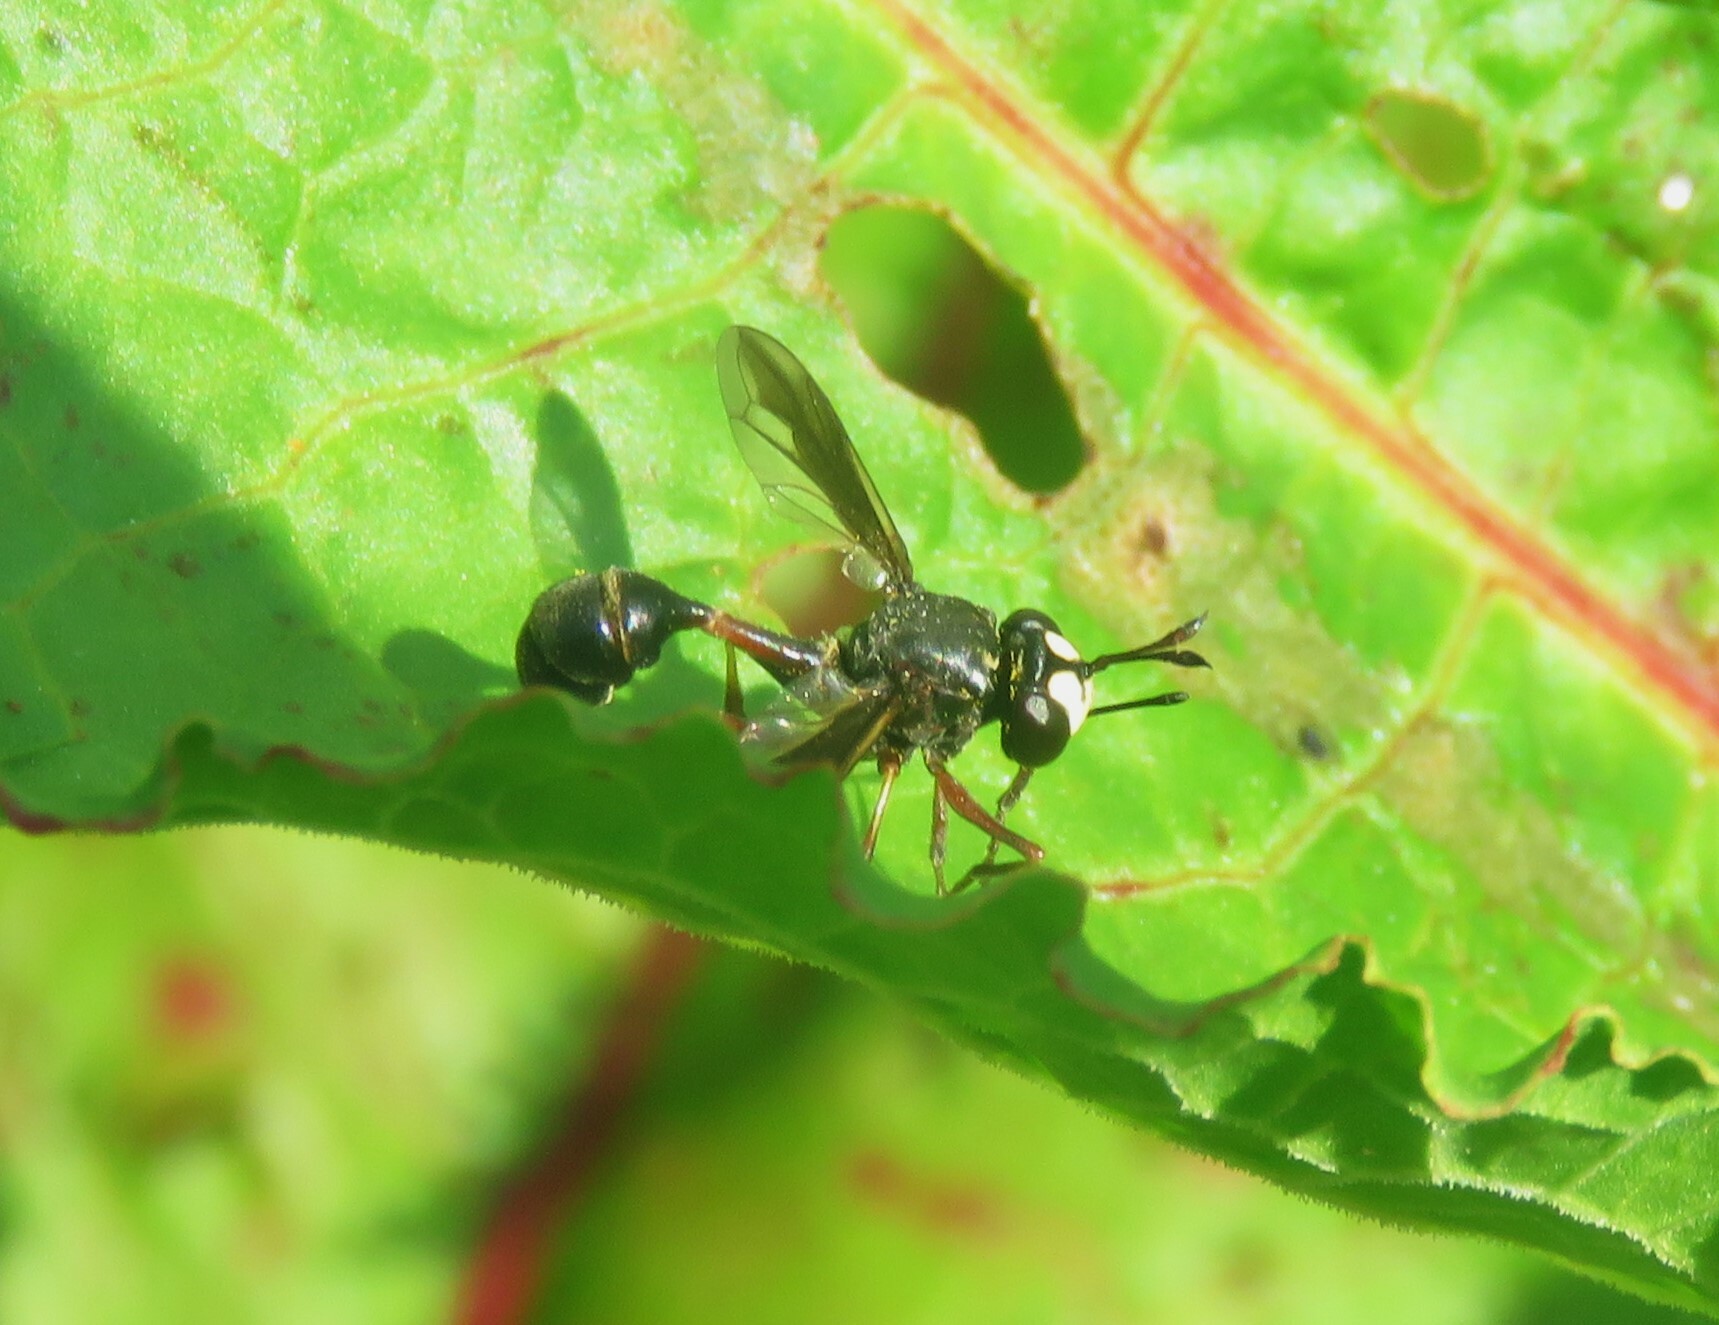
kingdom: Animalia
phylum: Arthropoda
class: Insecta
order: Diptera
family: Conopidae
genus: Physocephala
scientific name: Physocephala furcillata
